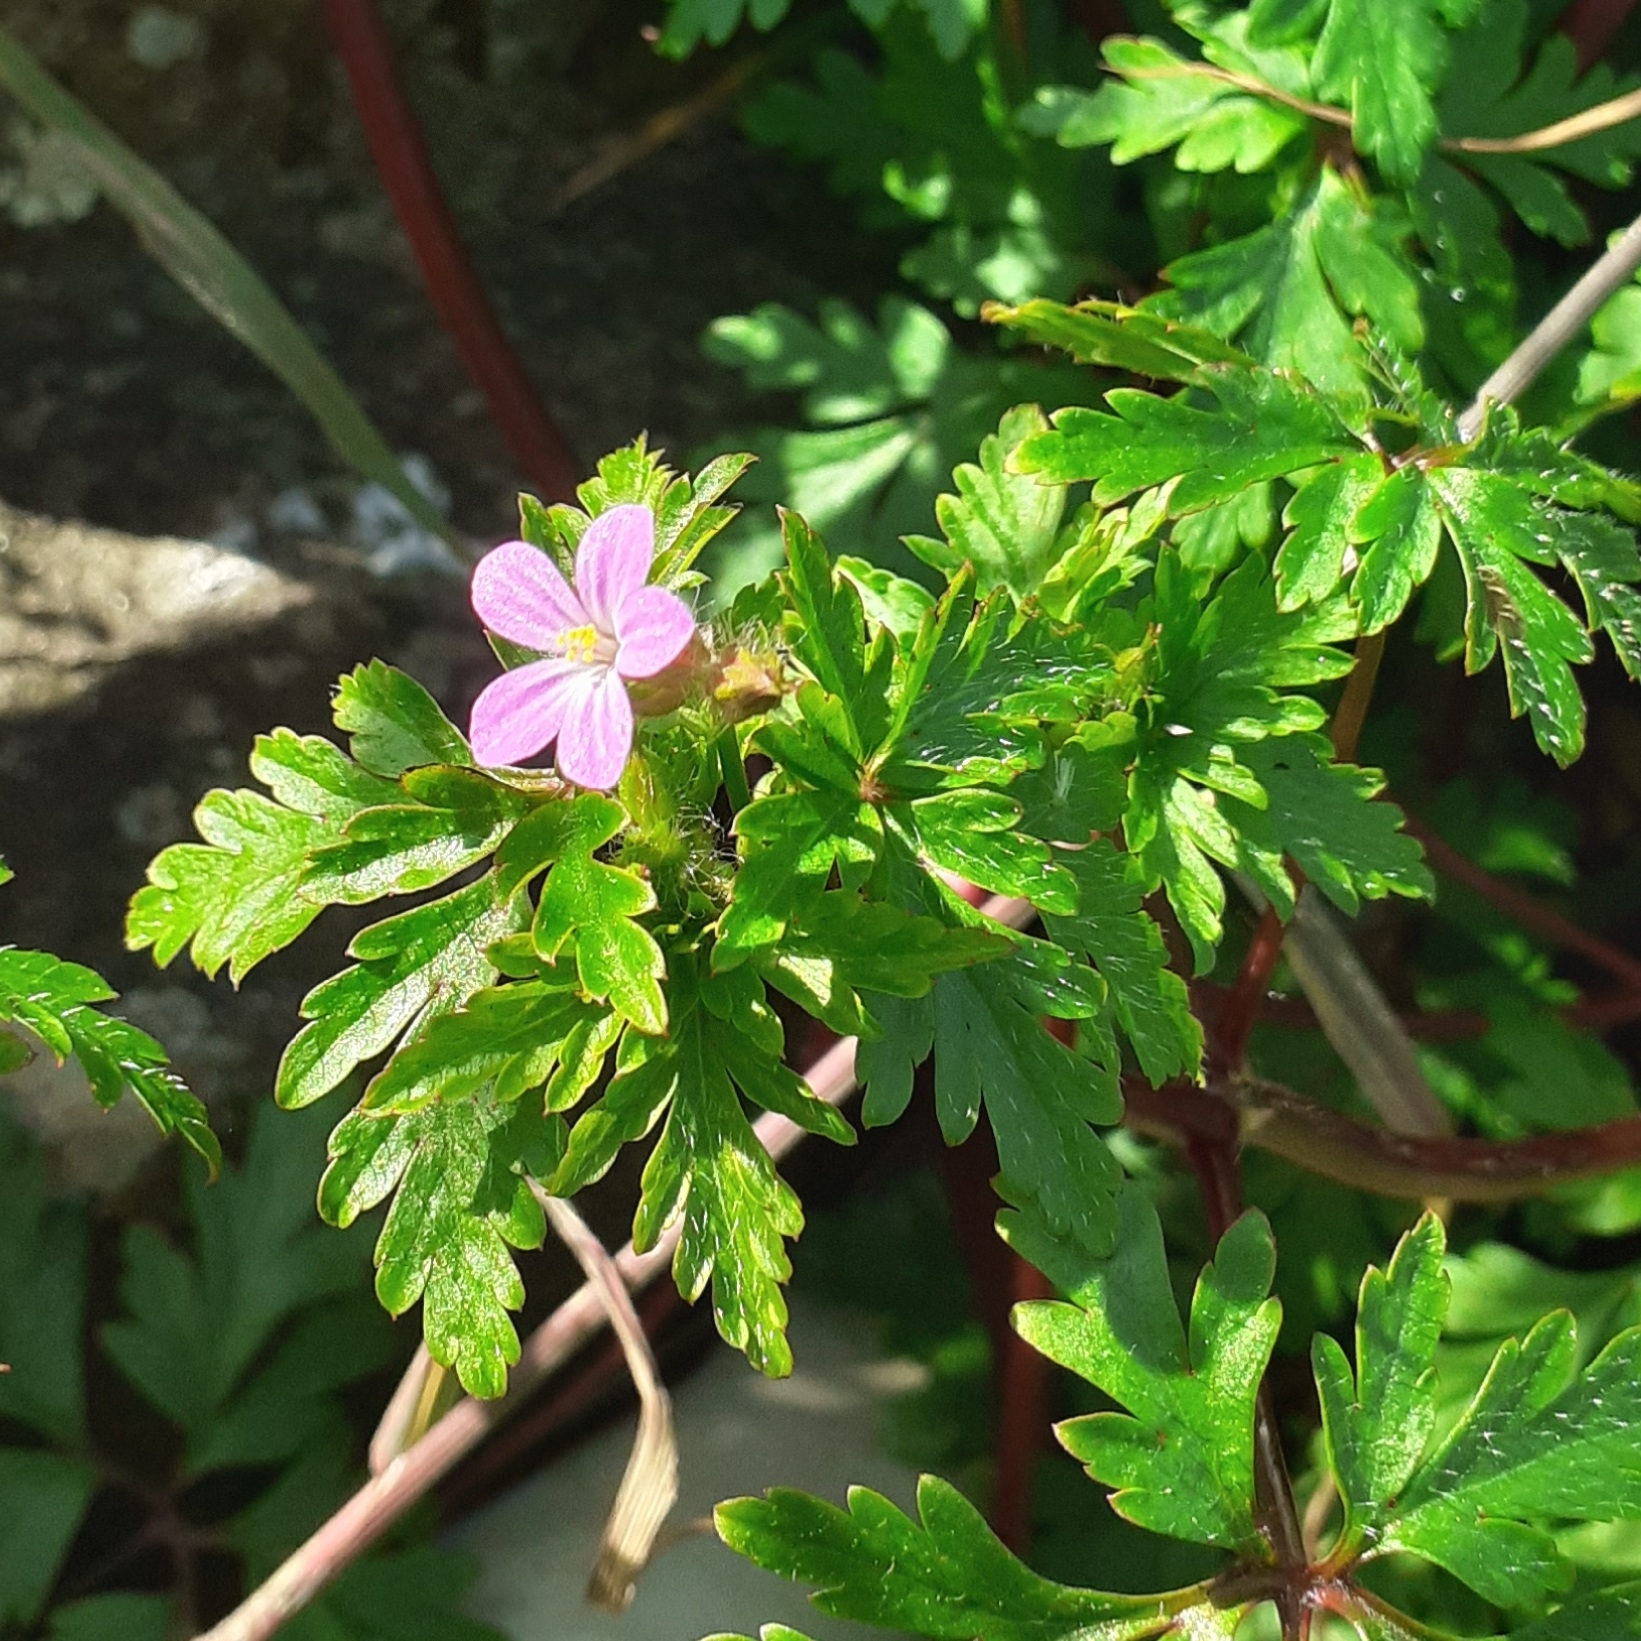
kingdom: Plantae
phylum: Tracheophyta
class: Magnoliopsida
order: Geraniales
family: Geraniaceae
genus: Geranium
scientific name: Geranium purpureum
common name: Little-robin
